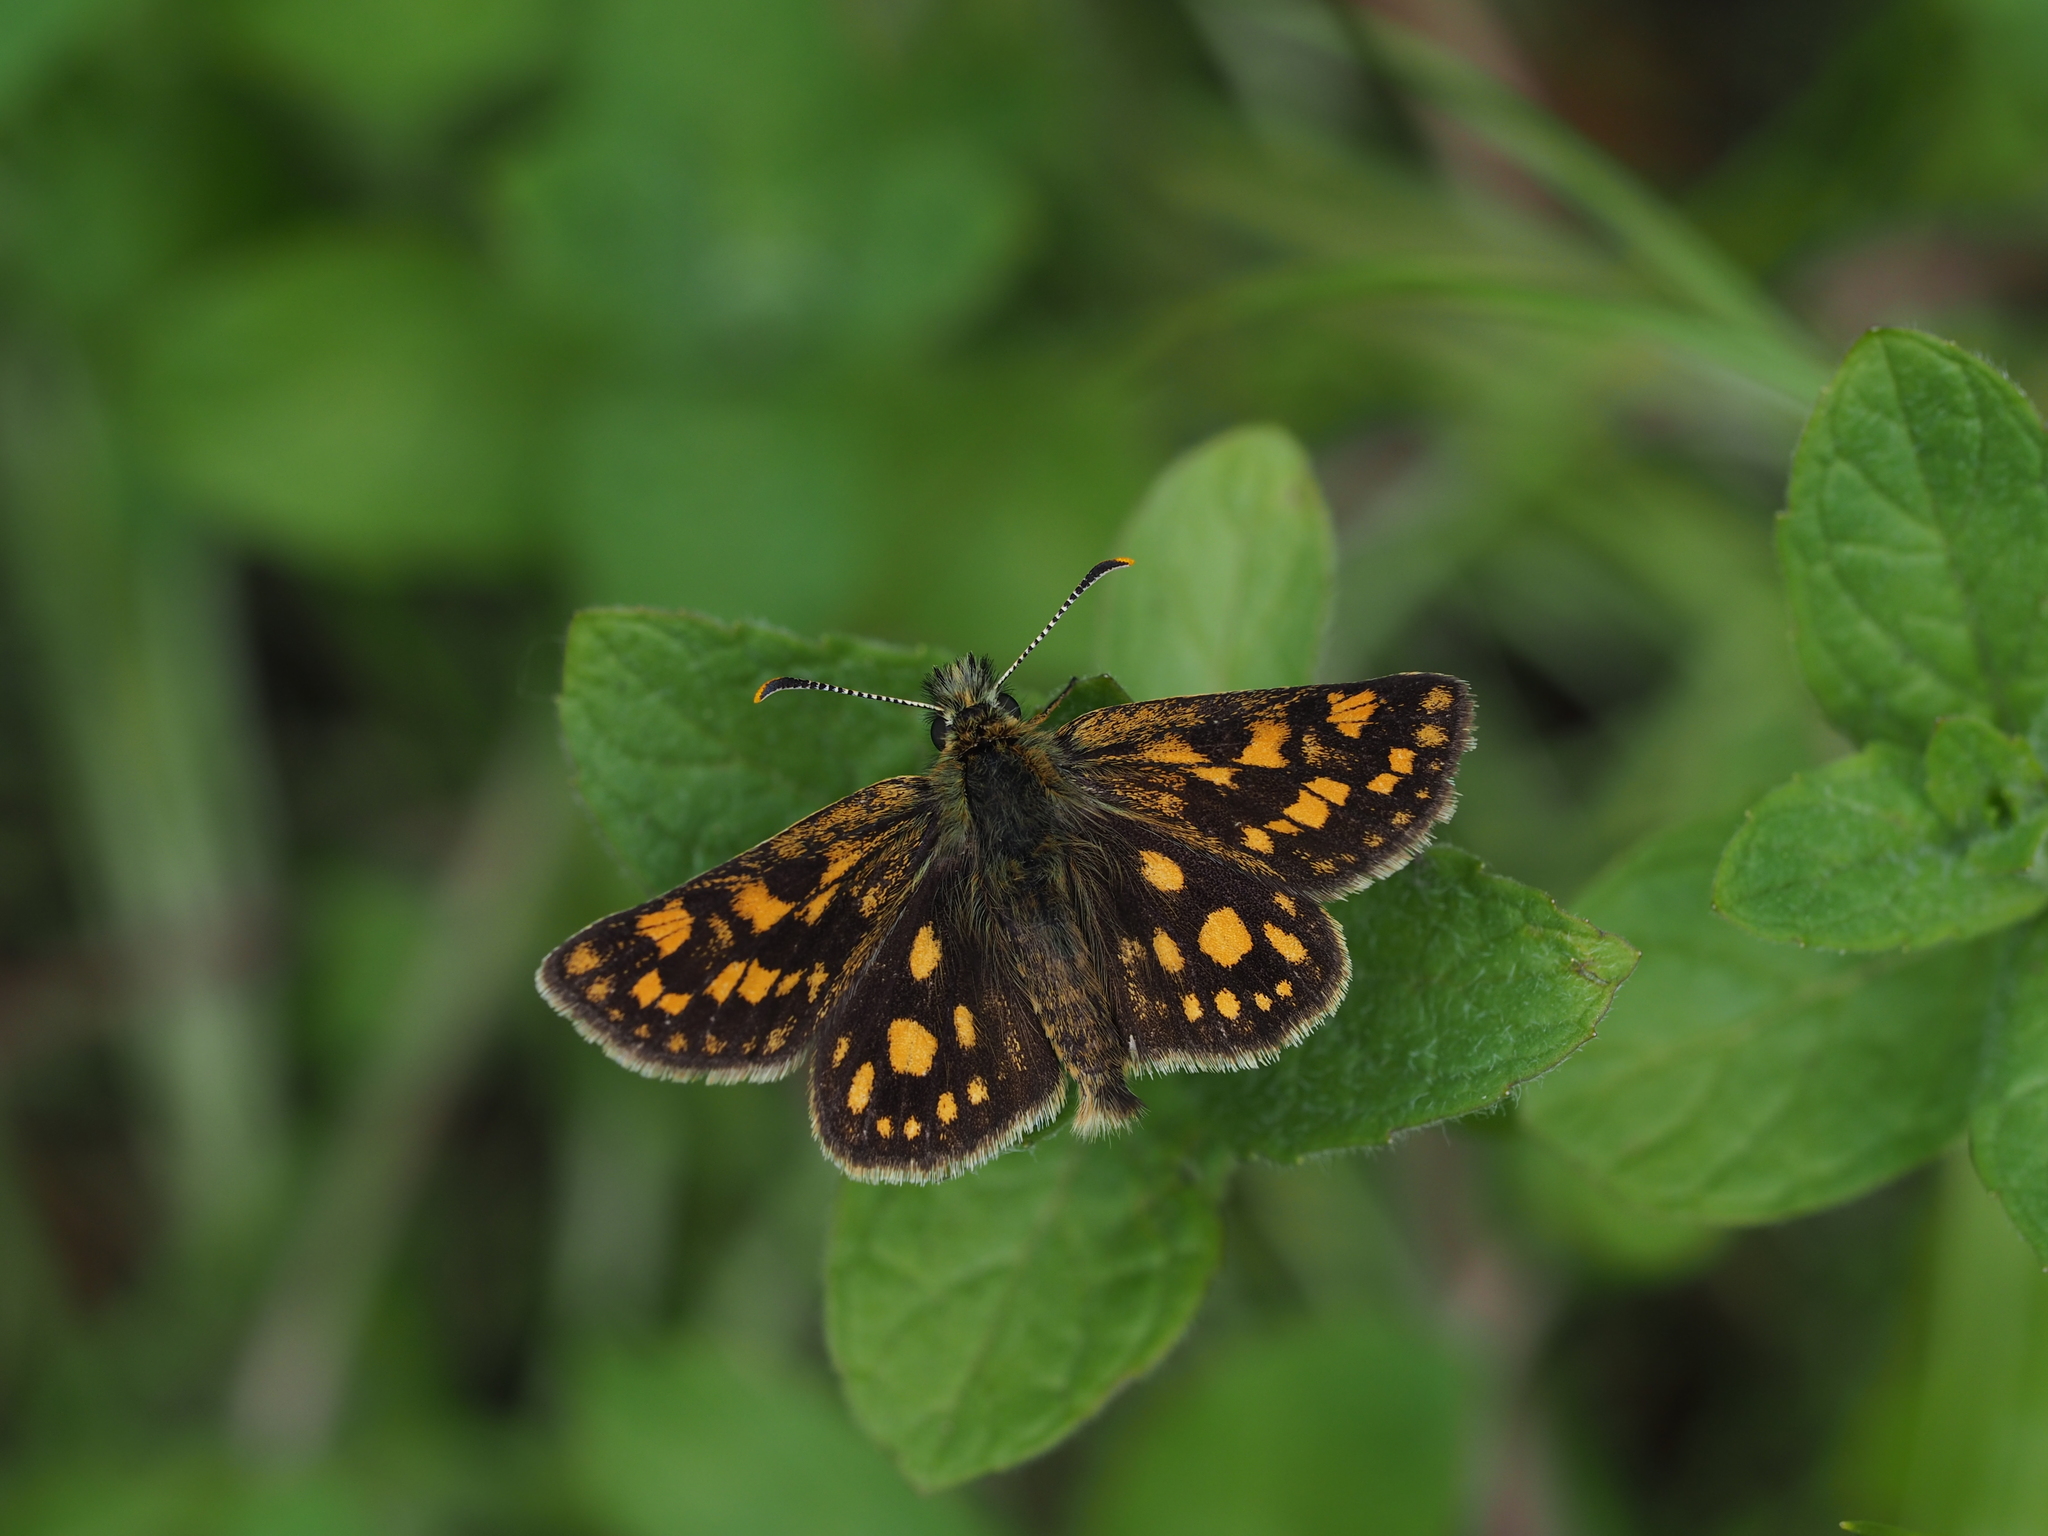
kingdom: Animalia
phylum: Arthropoda
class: Insecta
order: Lepidoptera
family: Hesperiidae
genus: Carterocephalus
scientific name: Carterocephalus palaemon
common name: Chequered skipper
